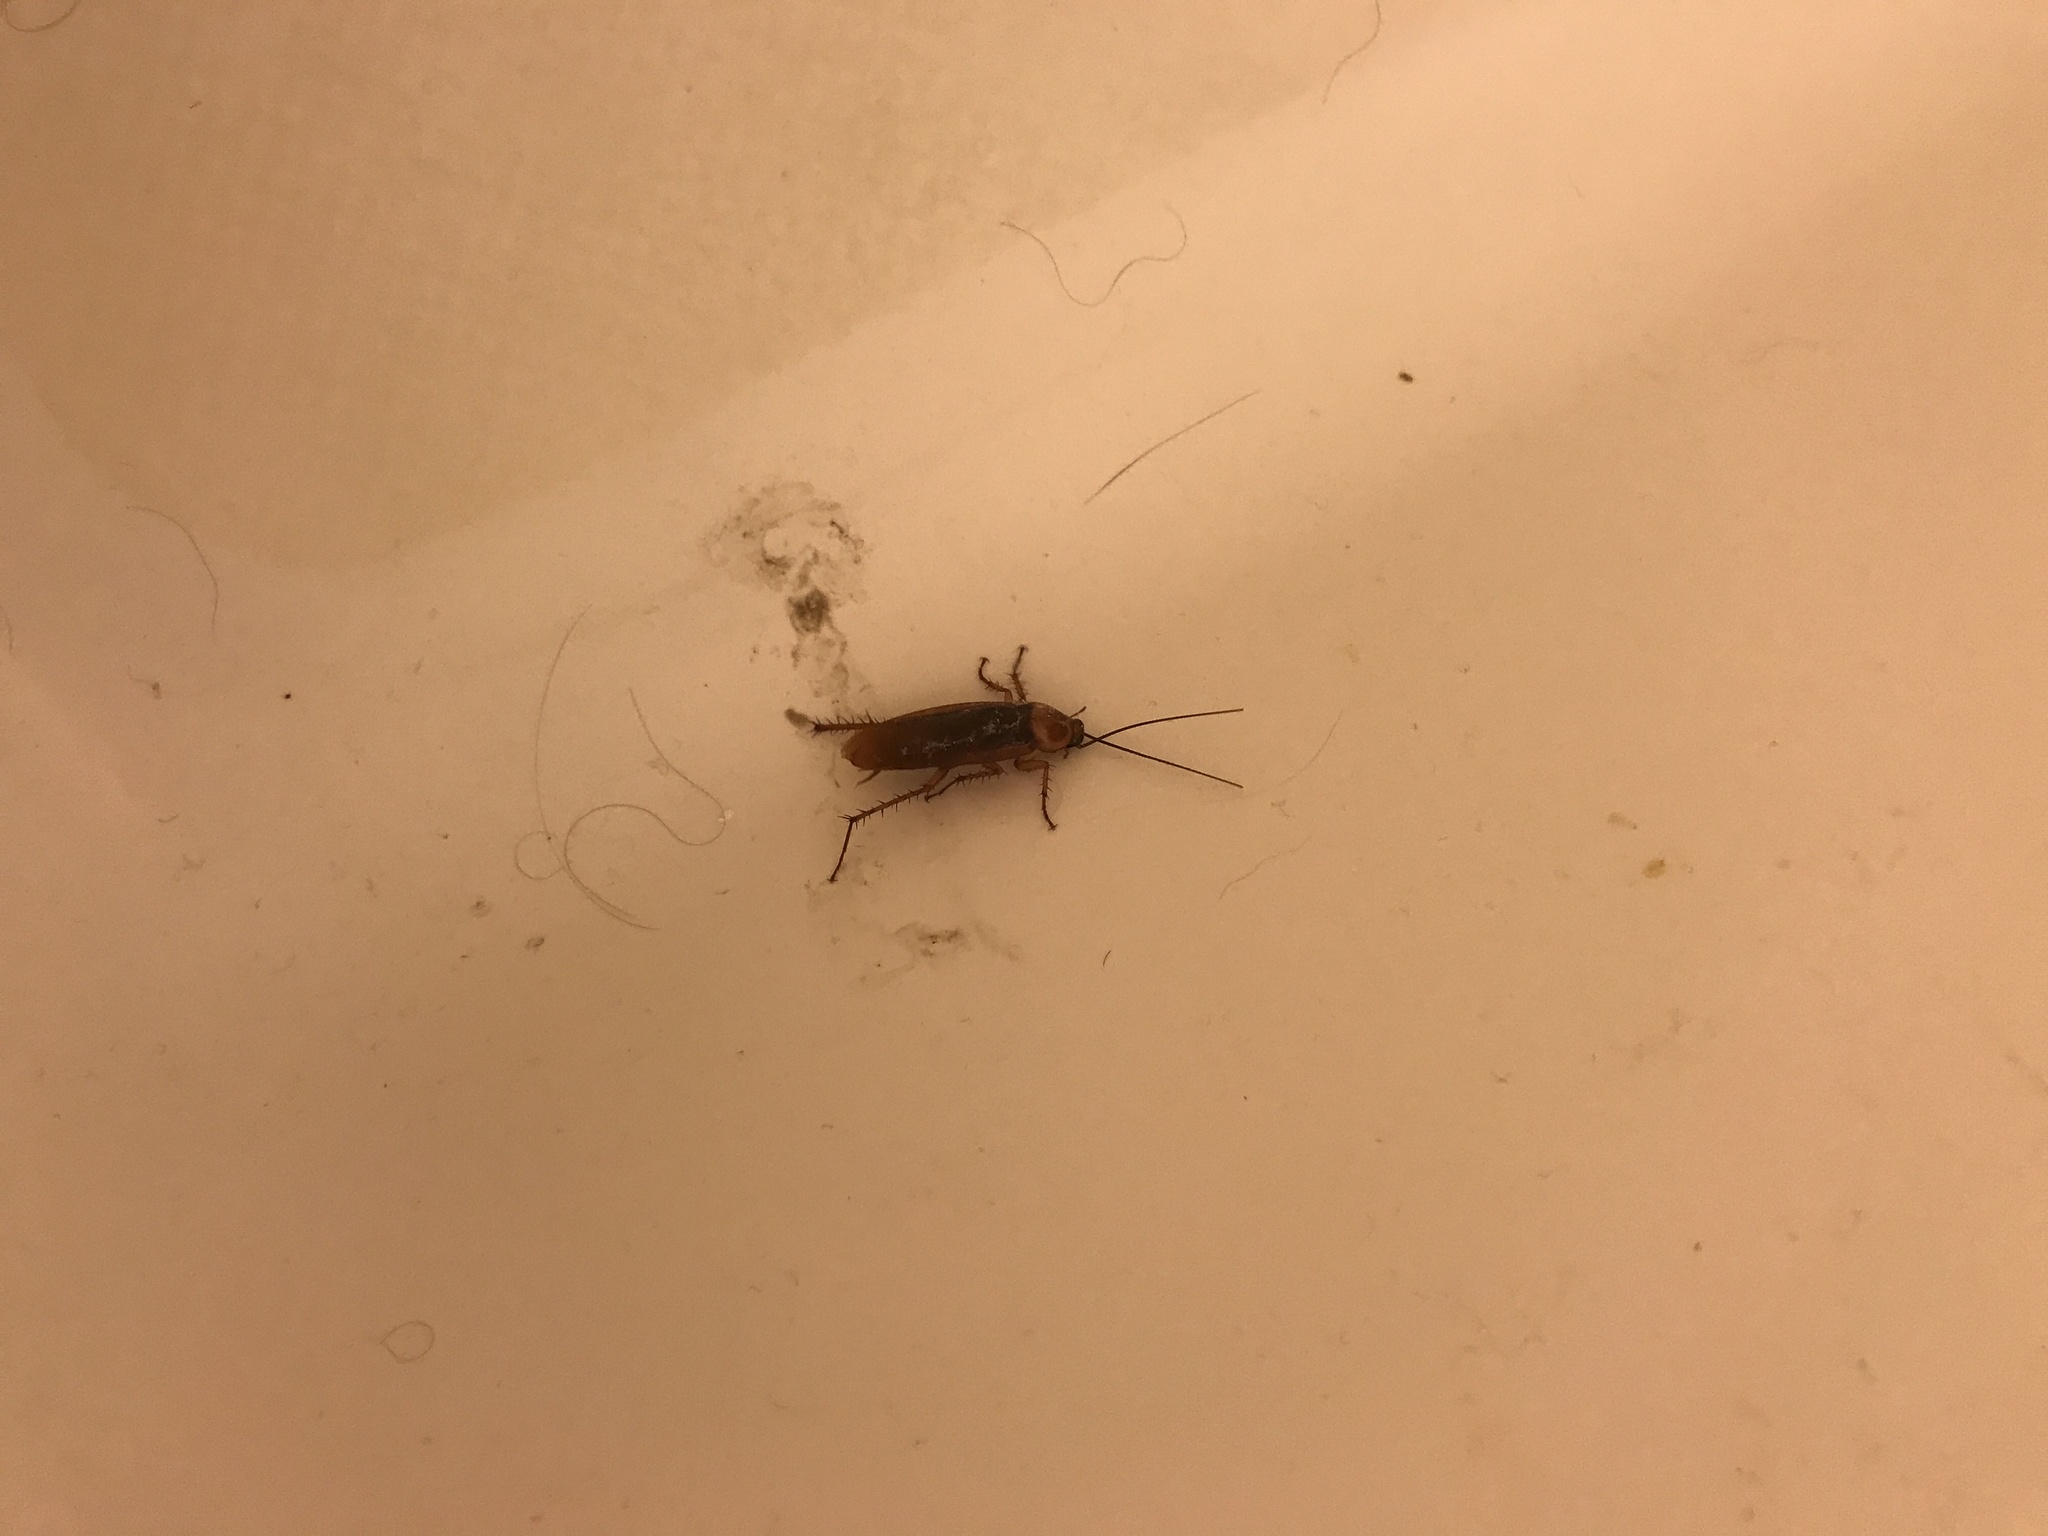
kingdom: Animalia
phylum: Arthropoda
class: Insecta
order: Blattodea
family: Blattidae
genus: Periplaneta
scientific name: Periplaneta americana
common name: American cockroach
